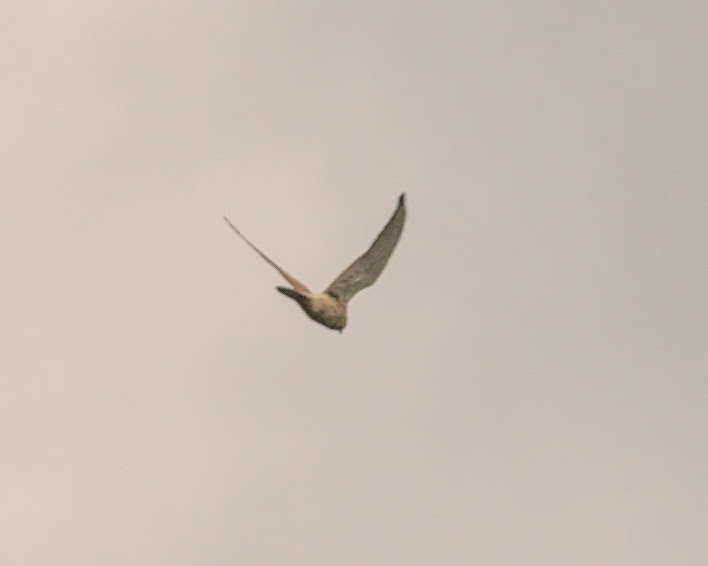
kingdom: Animalia
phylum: Chordata
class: Aves
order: Falconiformes
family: Falconidae
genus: Falco
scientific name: Falco tinnunculus
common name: Common kestrel
